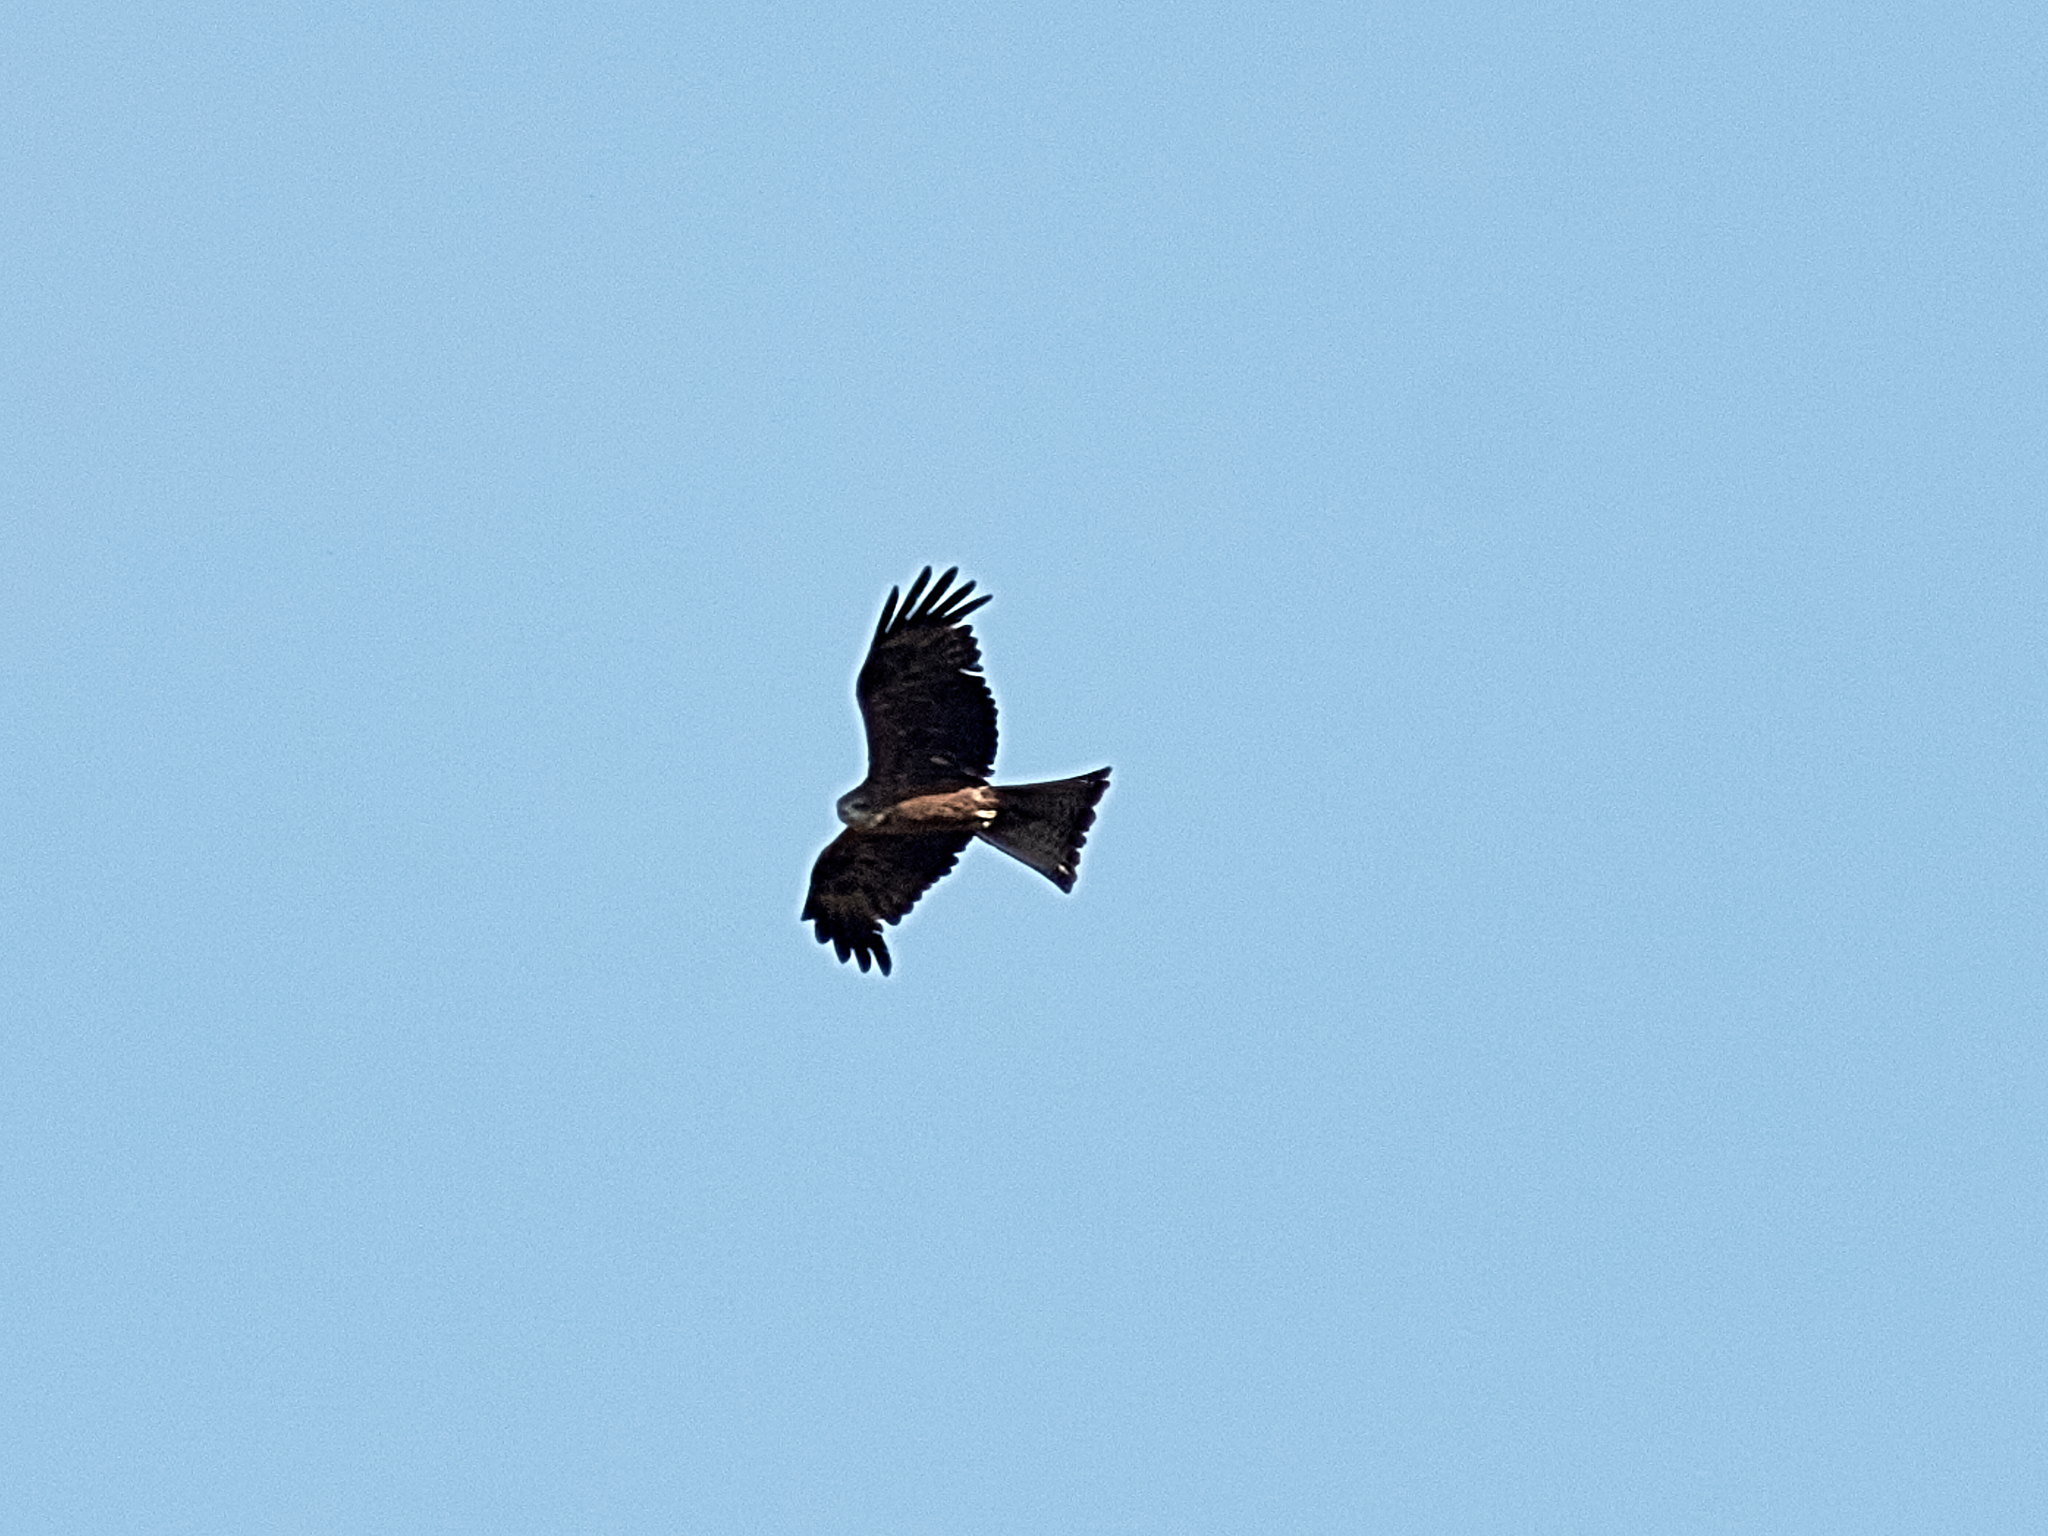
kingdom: Animalia
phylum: Chordata
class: Aves
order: Accipitriformes
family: Accipitridae
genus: Milvus
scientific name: Milvus migrans
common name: Black kite
